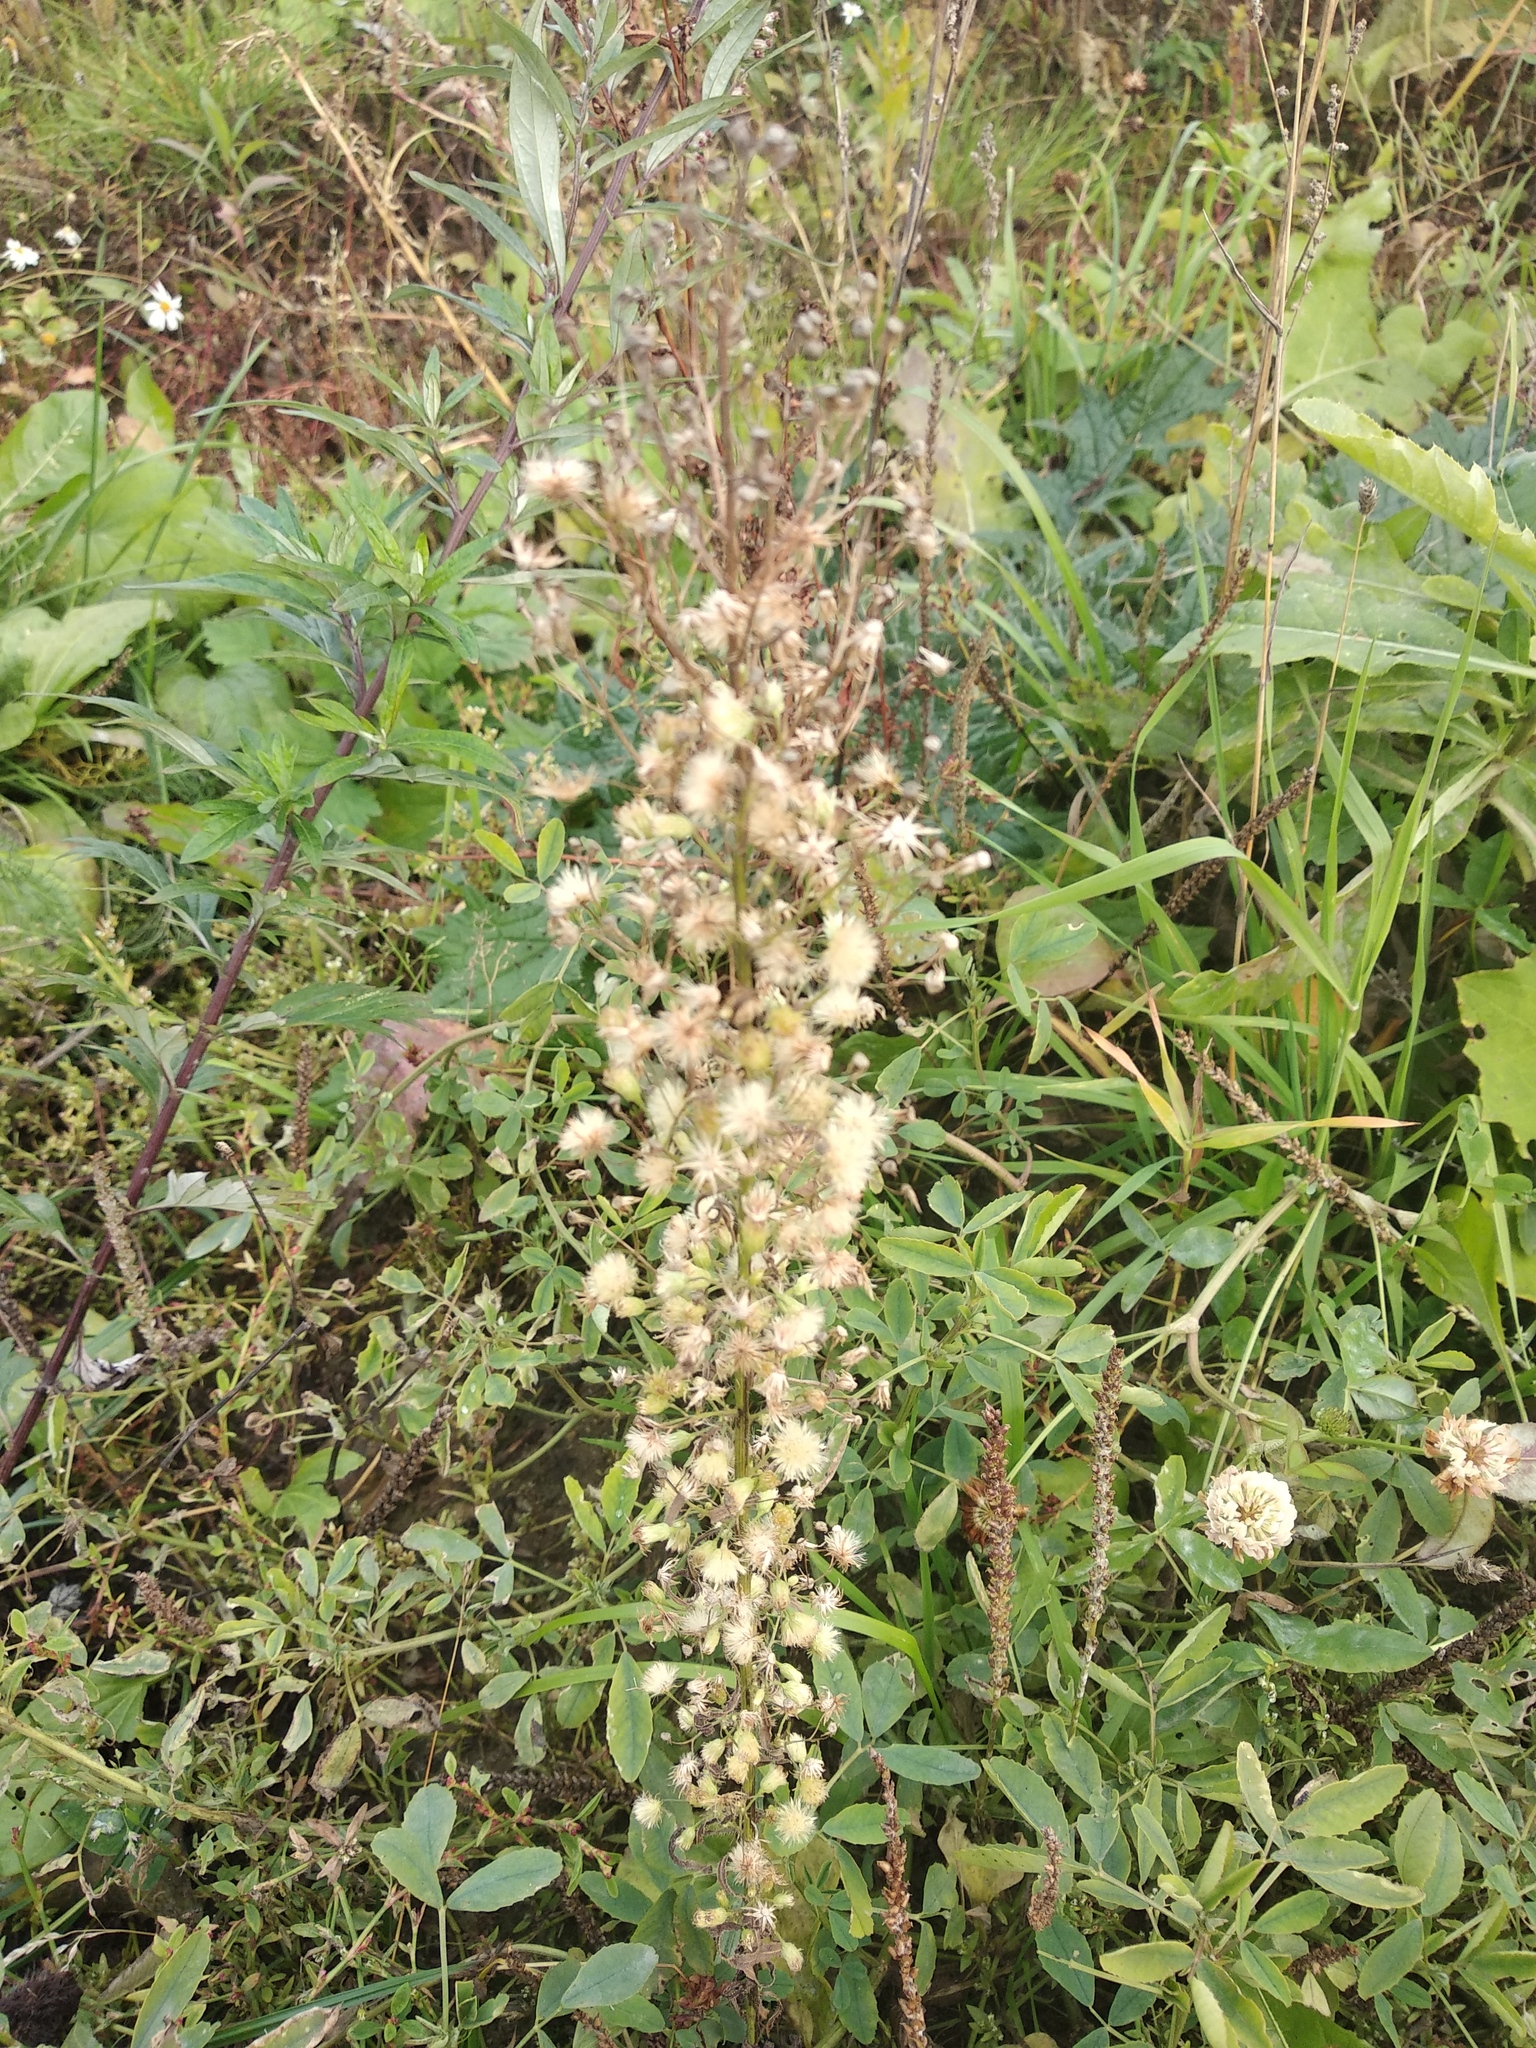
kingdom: Plantae
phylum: Tracheophyta
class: Magnoliopsida
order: Asterales
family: Asteraceae
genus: Erigeron
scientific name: Erigeron canadensis
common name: Canadian fleabane
